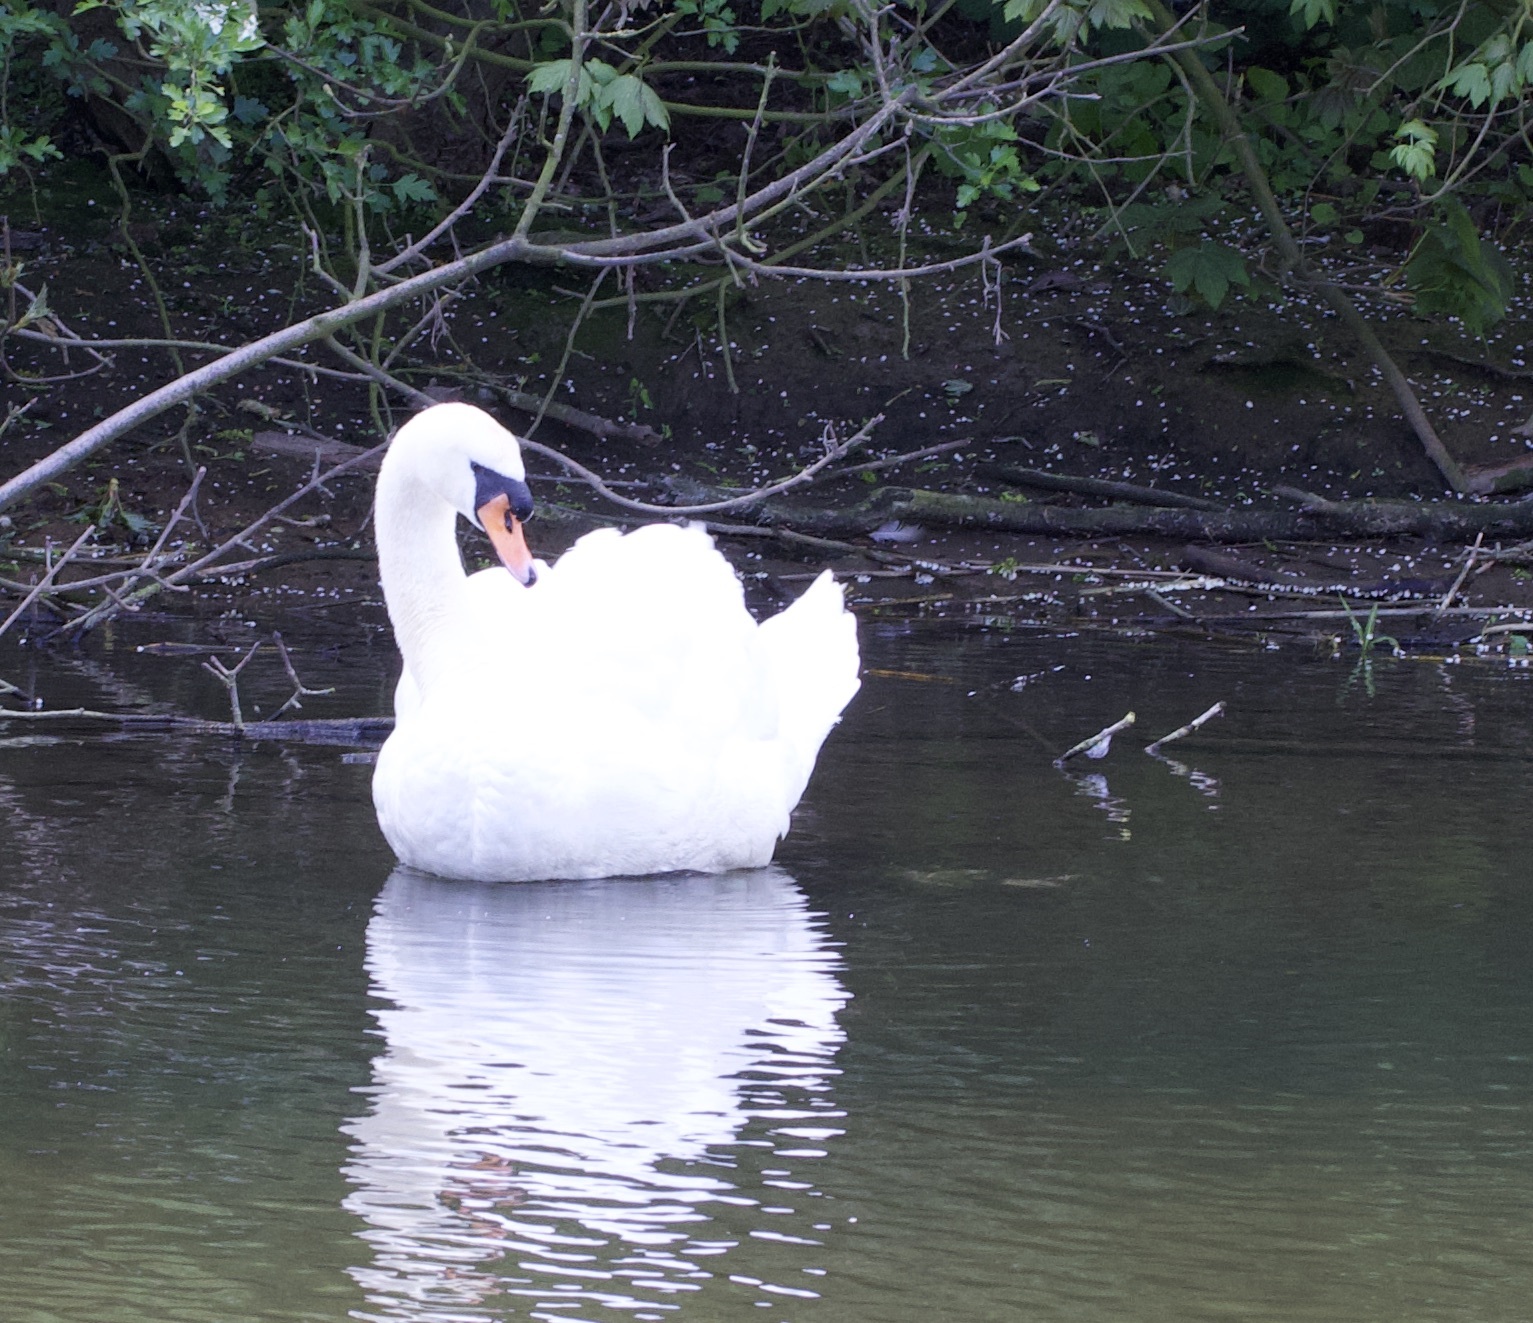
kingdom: Animalia
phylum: Chordata
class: Aves
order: Anseriformes
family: Anatidae
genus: Cygnus
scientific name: Cygnus olor
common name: Mute swan
